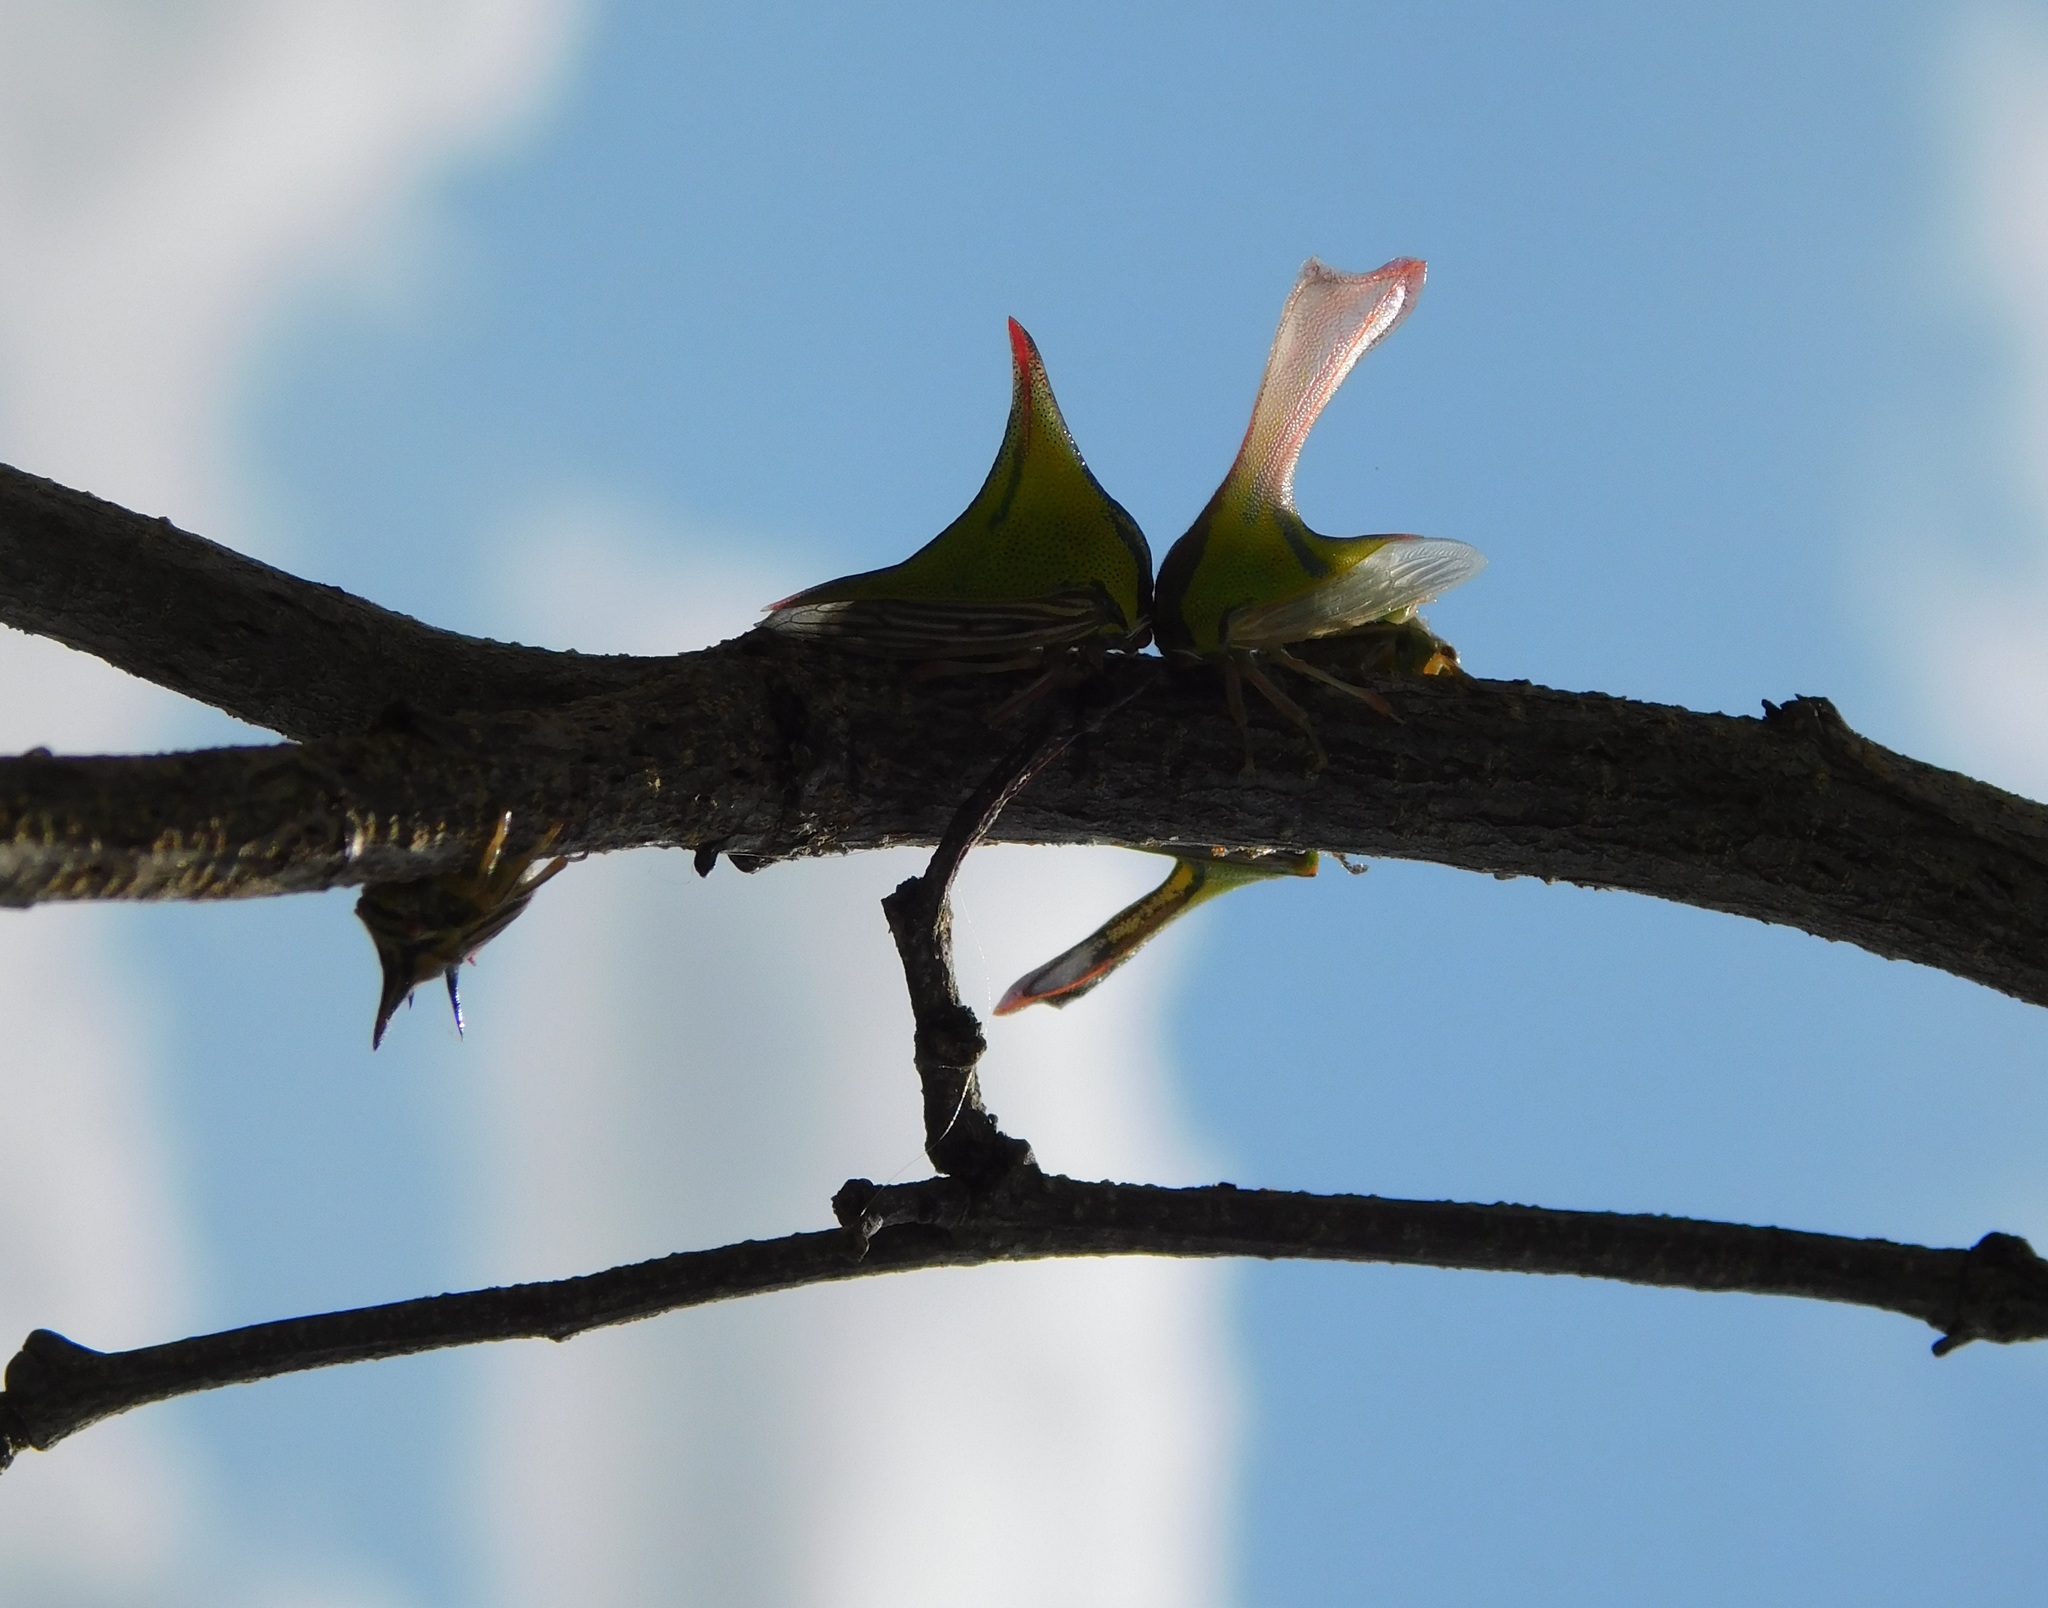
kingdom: Animalia
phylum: Arthropoda
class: Insecta
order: Hemiptera
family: Membracidae
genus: Umbonia
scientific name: Umbonia crassicornis
